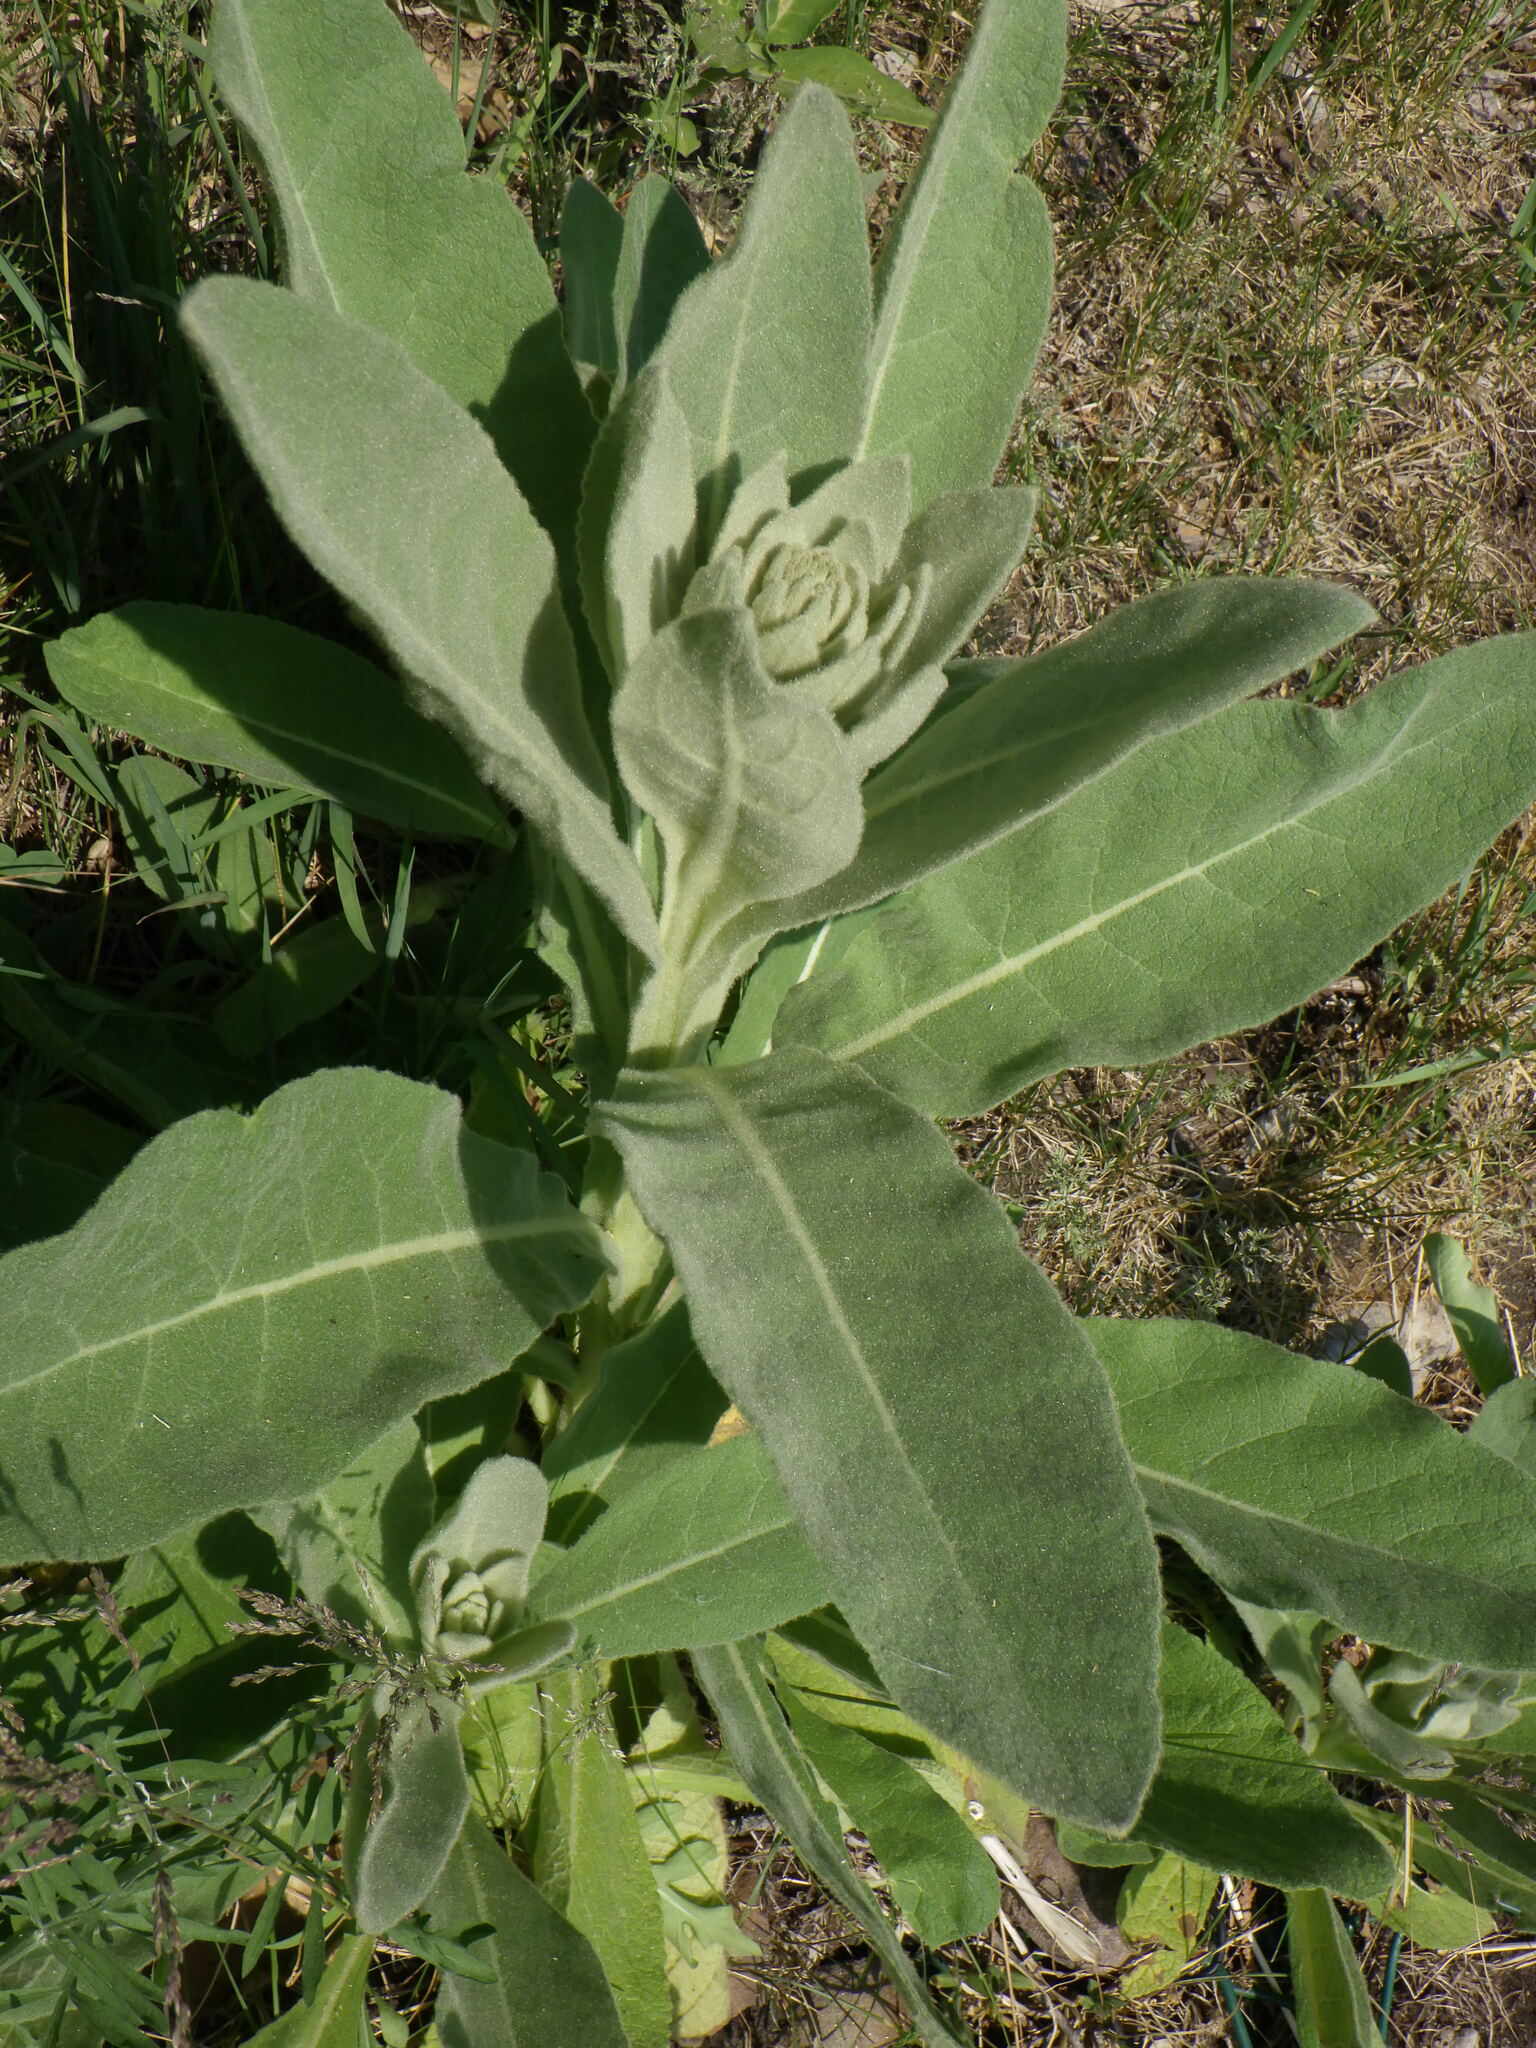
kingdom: Plantae
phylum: Tracheophyta
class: Magnoliopsida
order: Lamiales
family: Scrophulariaceae
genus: Verbascum
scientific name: Verbascum thapsus
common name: Common mullein
